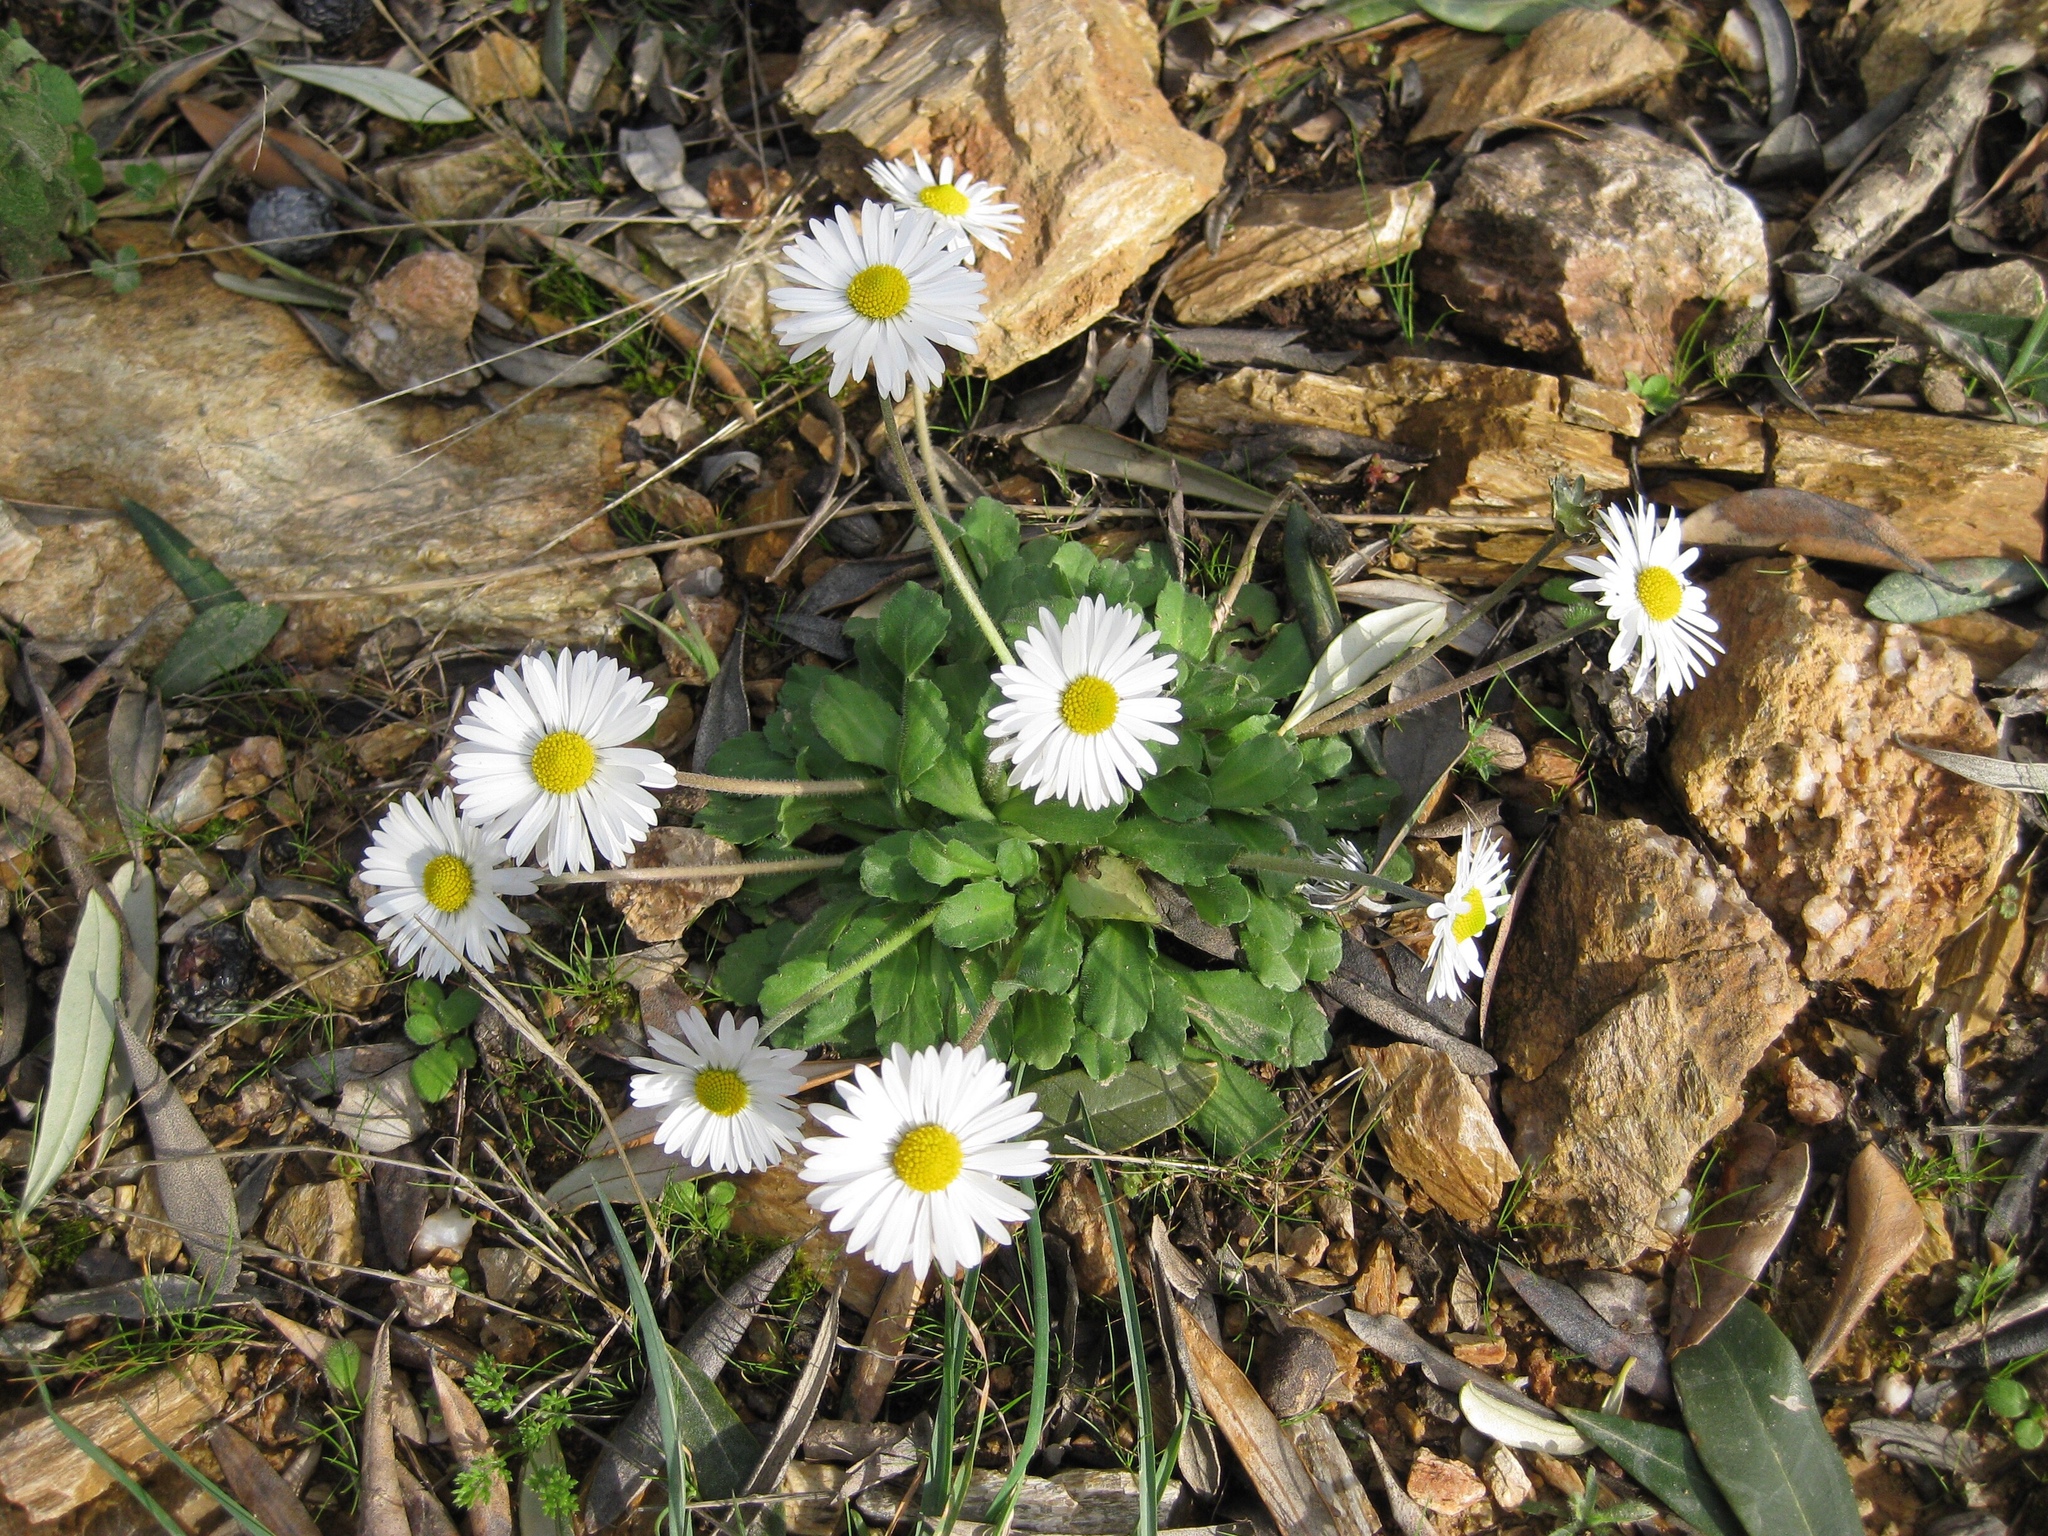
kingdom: Plantae
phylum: Tracheophyta
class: Magnoliopsida
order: Asterales
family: Asteraceae
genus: Bellis
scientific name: Bellis perennis
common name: Lawndaisy
